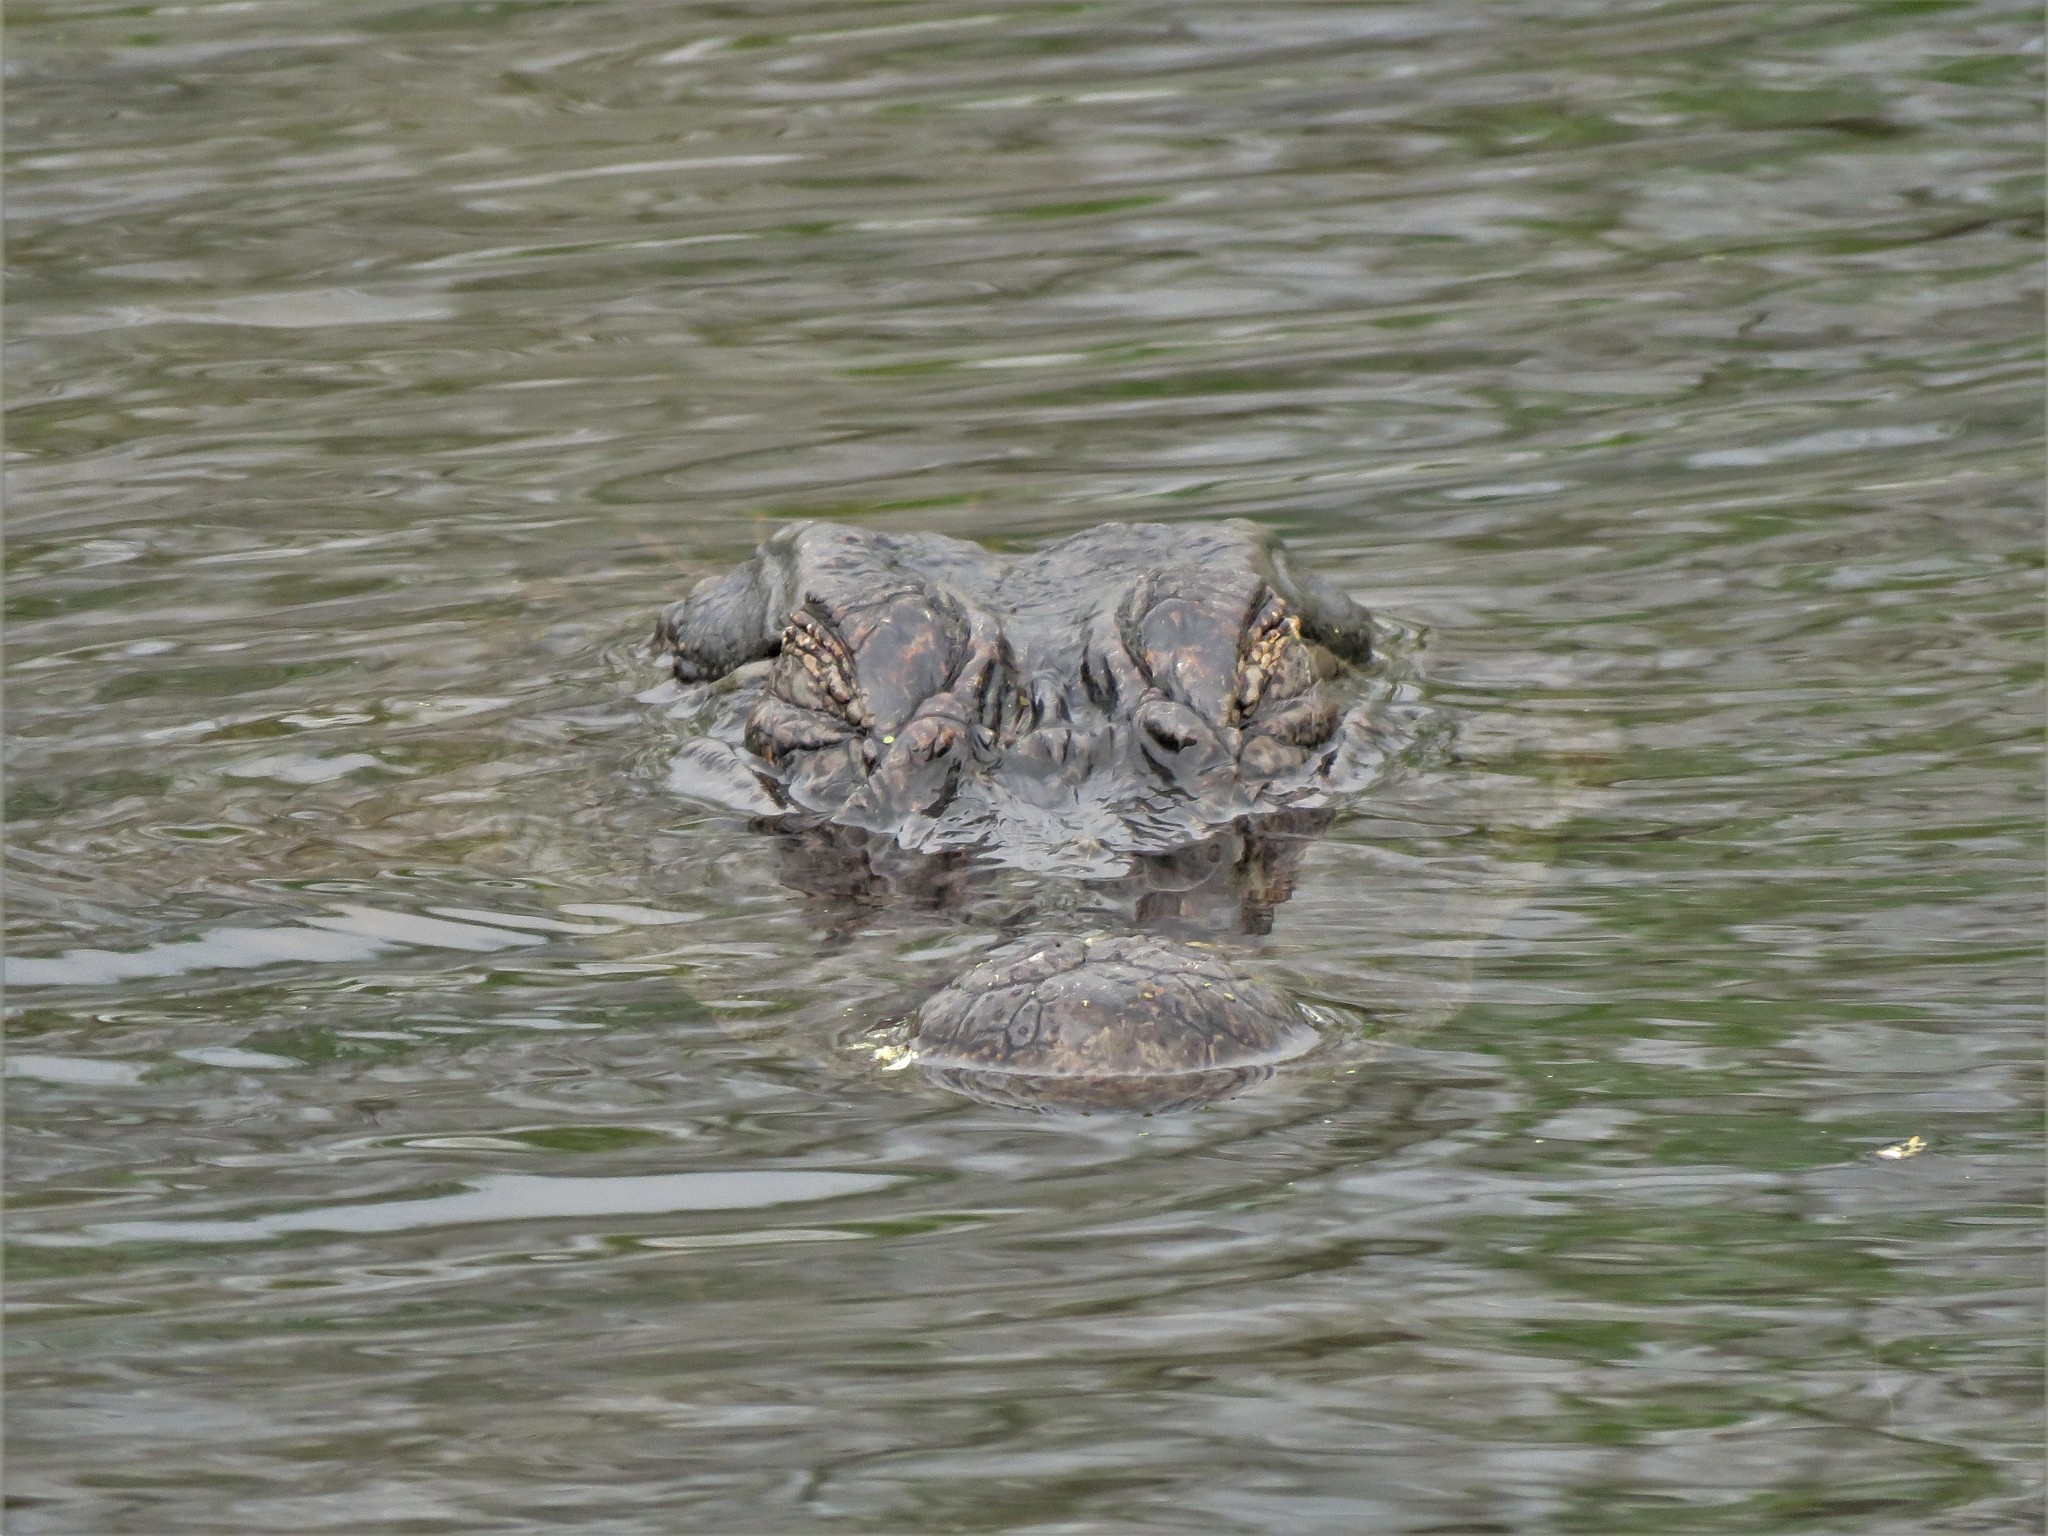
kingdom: Animalia
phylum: Chordata
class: Crocodylia
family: Alligatoridae
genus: Alligator
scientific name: Alligator mississippiensis
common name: American alligator
